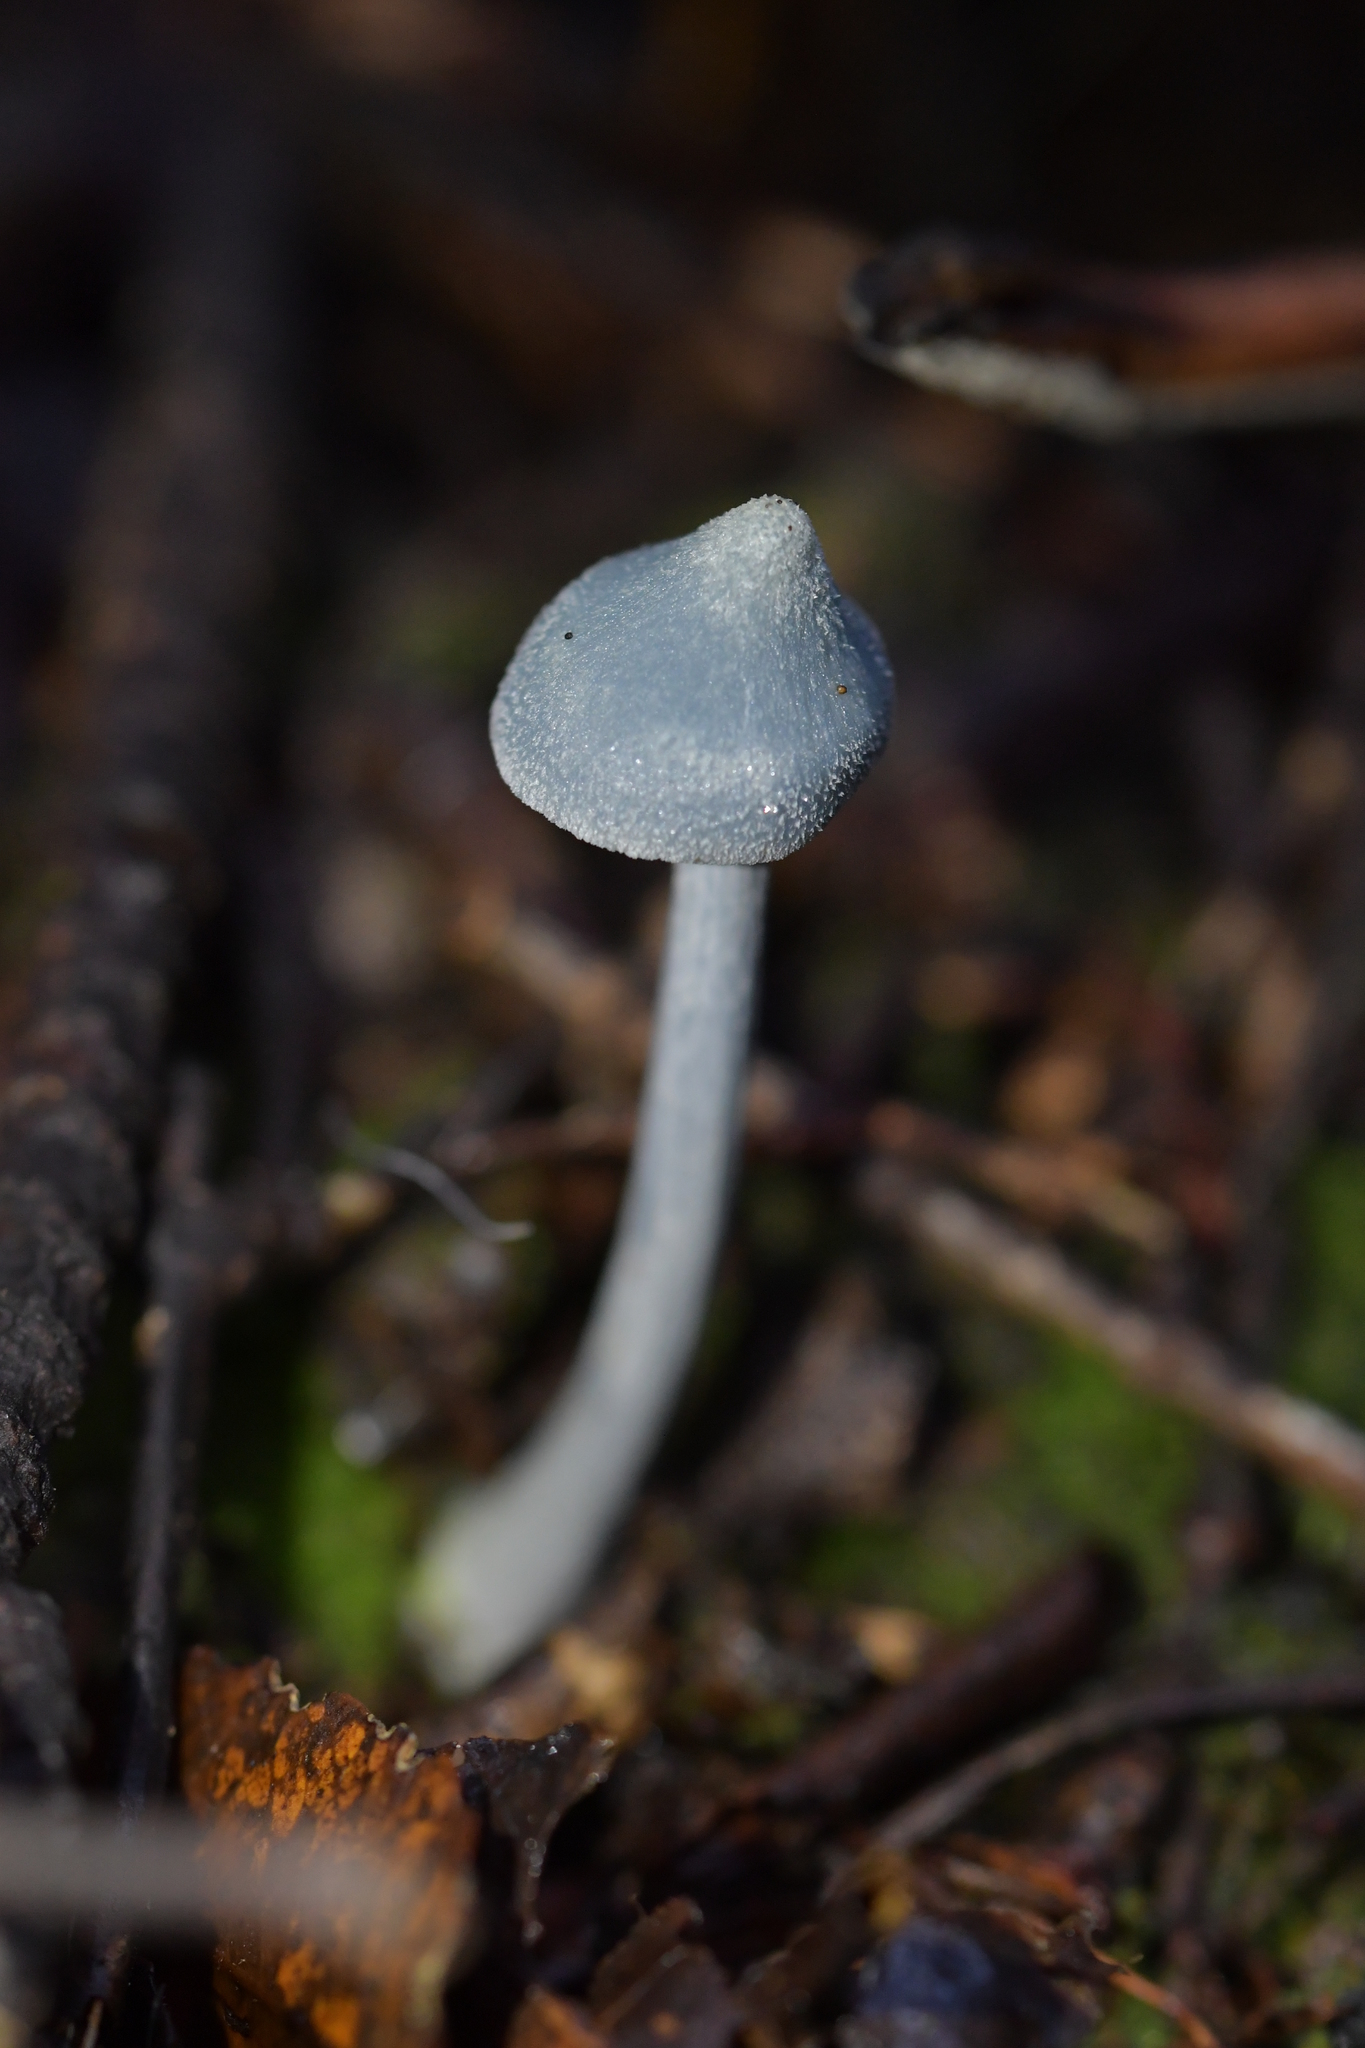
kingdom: Fungi
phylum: Basidiomycota
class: Agaricomycetes
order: Agaricales
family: Entolomataceae
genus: Entoloma
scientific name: Entoloma canoconicum
